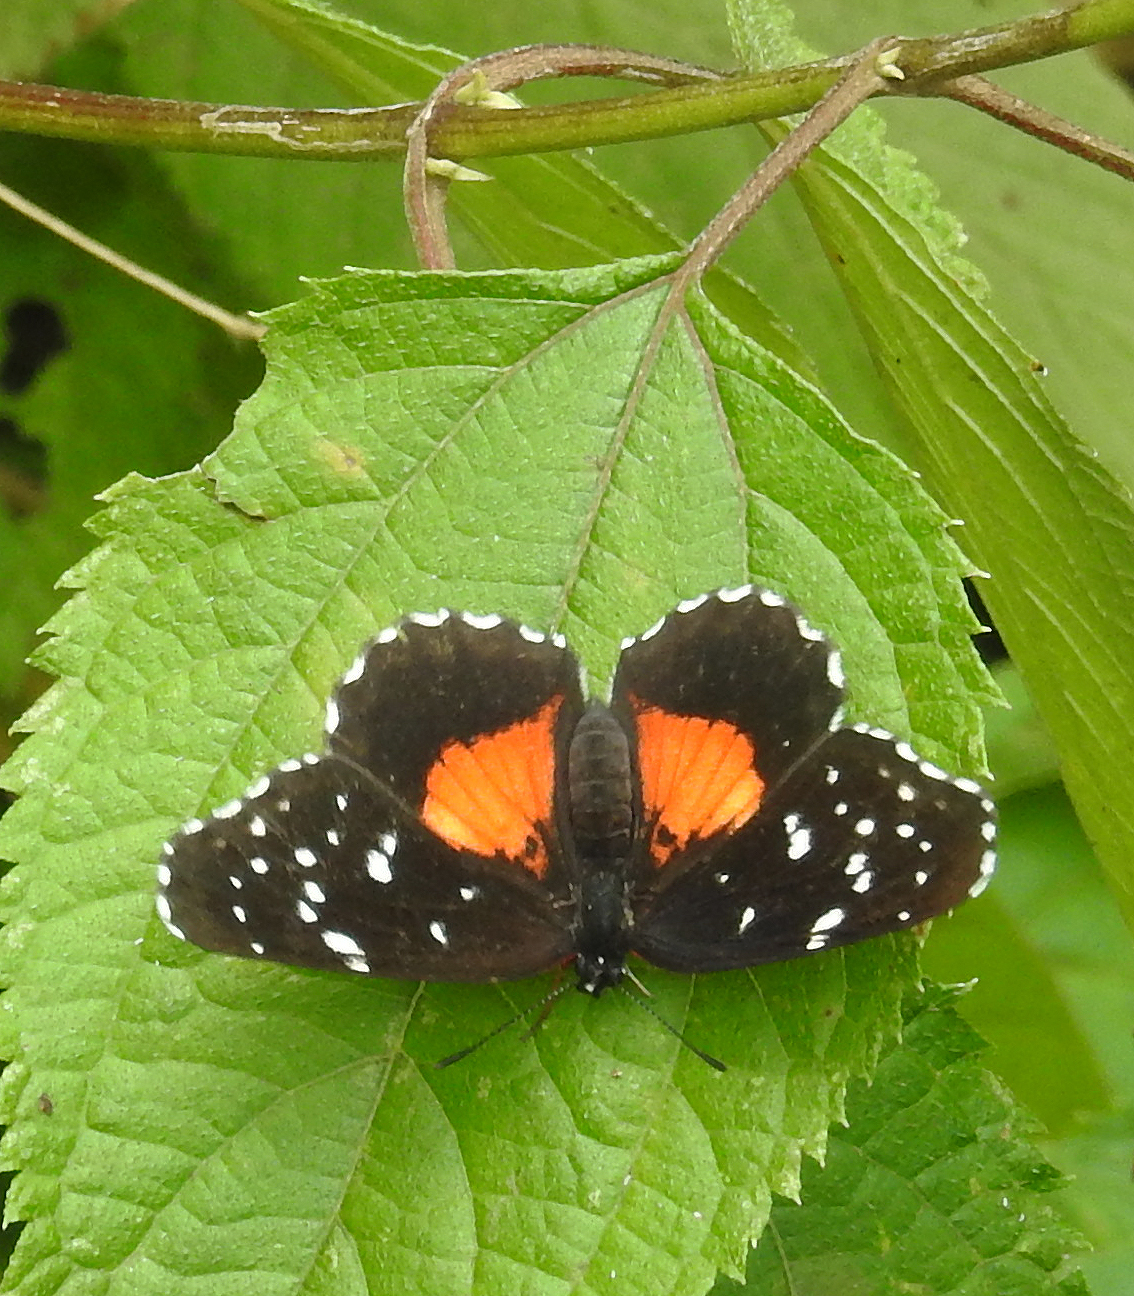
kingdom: Animalia
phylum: Arthropoda
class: Insecta
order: Lepidoptera
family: Nymphalidae
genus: Chlosyne
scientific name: Chlosyne lacinia
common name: Bordered patch
